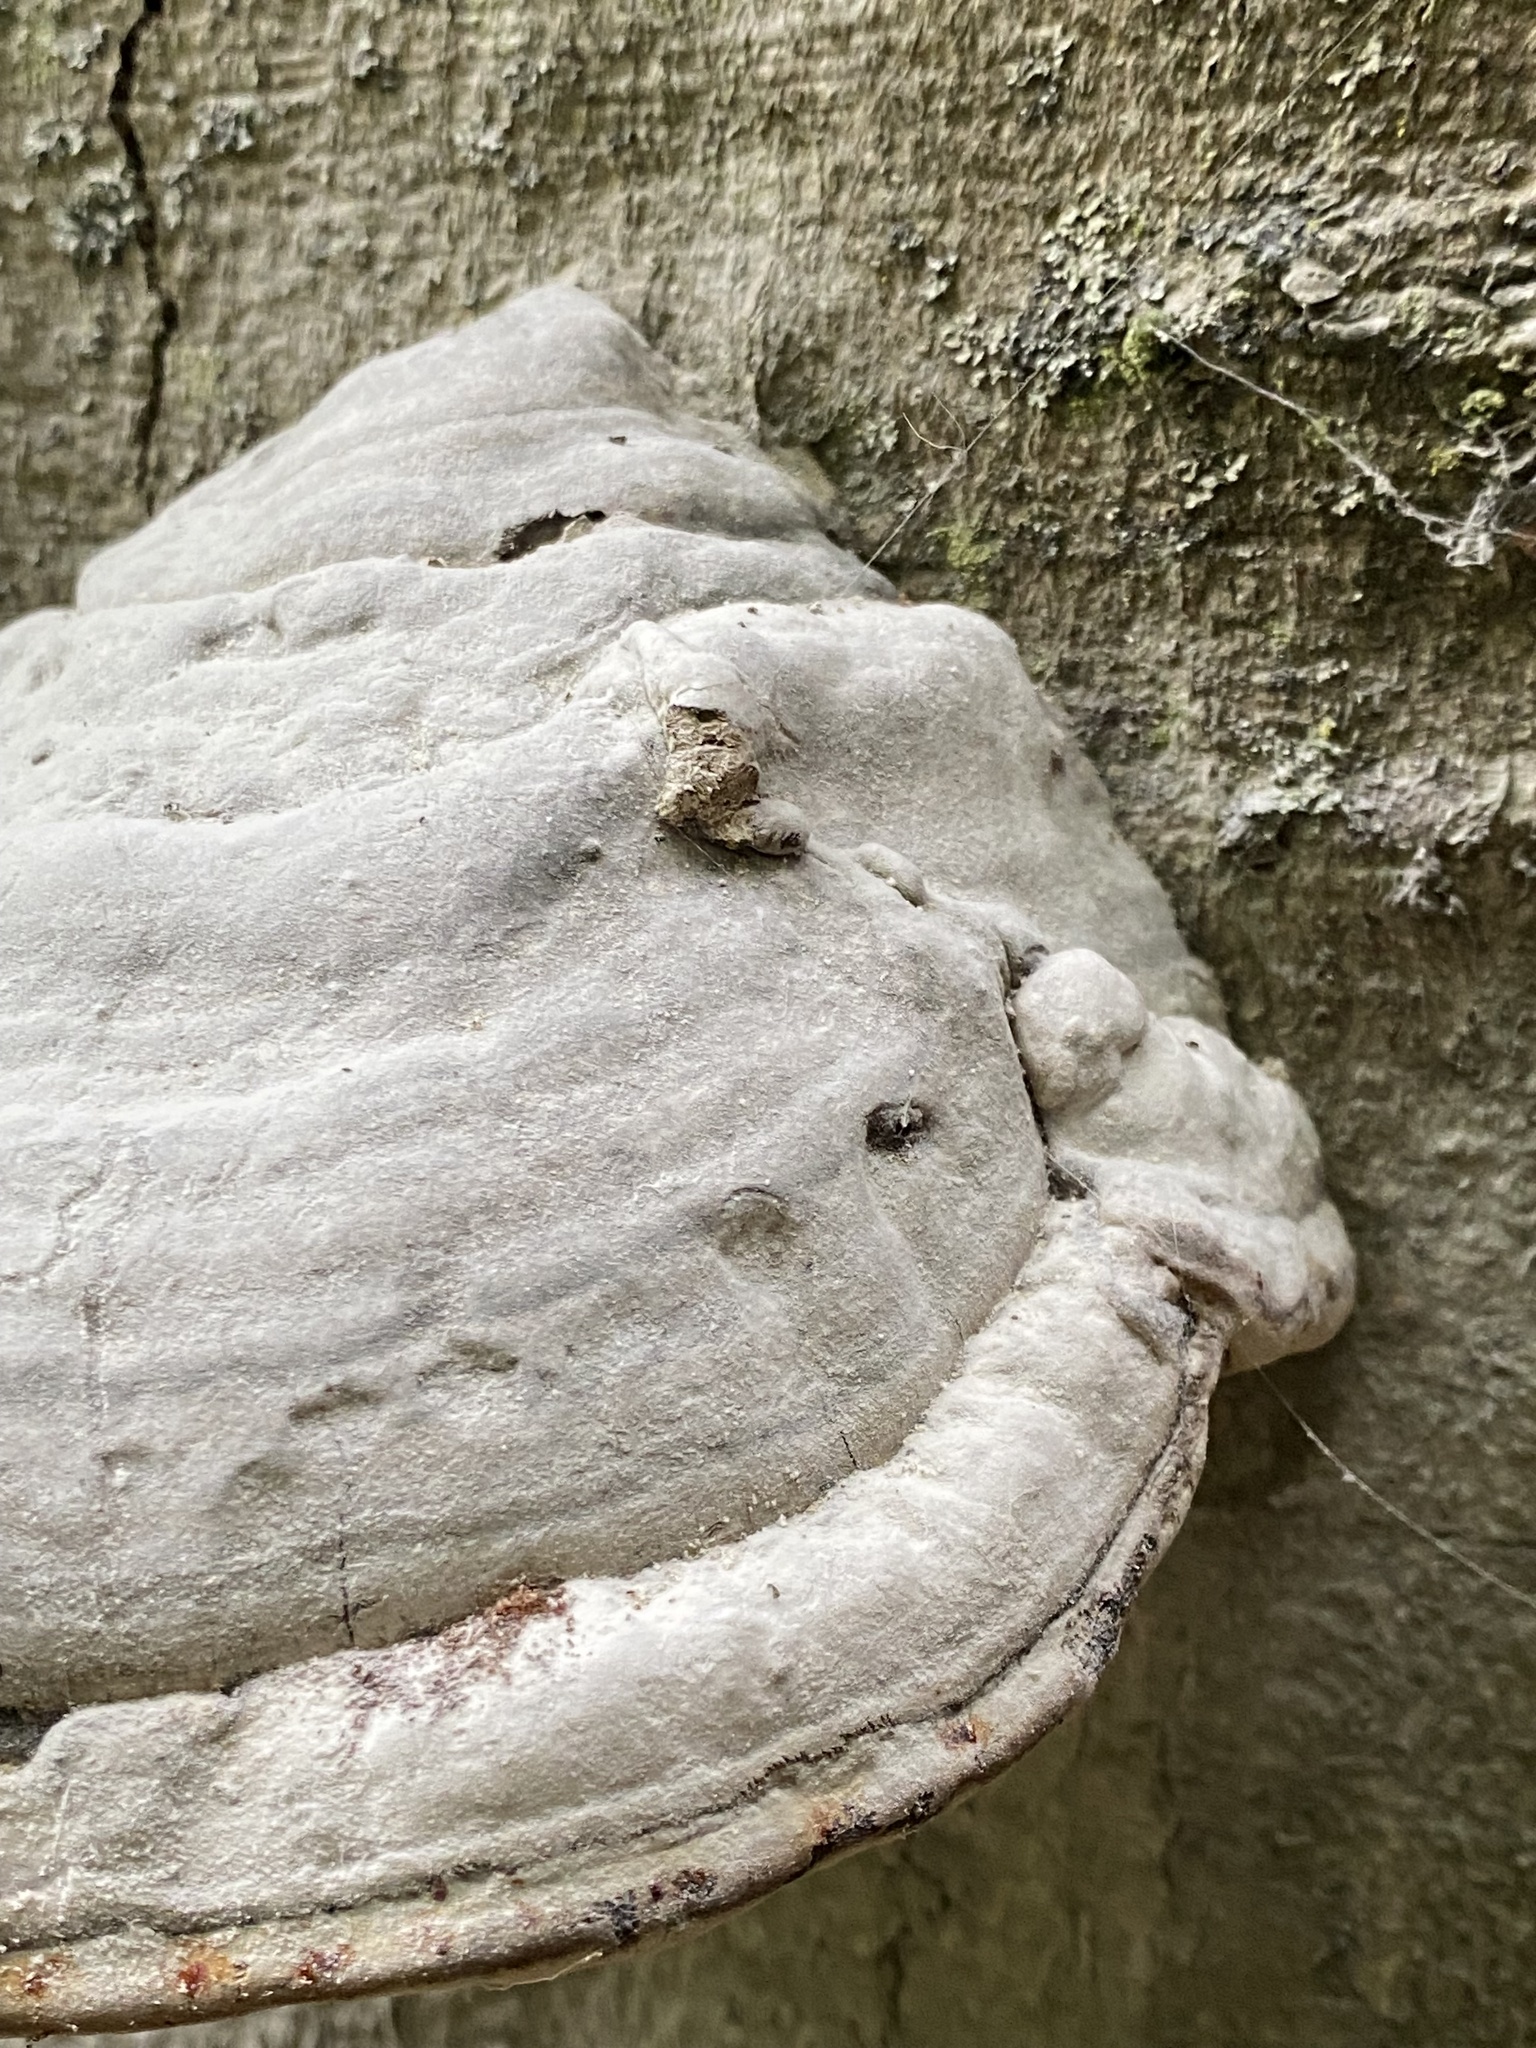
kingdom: Fungi
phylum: Basidiomycota
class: Agaricomycetes
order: Polyporales
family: Polyporaceae
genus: Fomes
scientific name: Fomes fomentarius
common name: Hoof fungus
